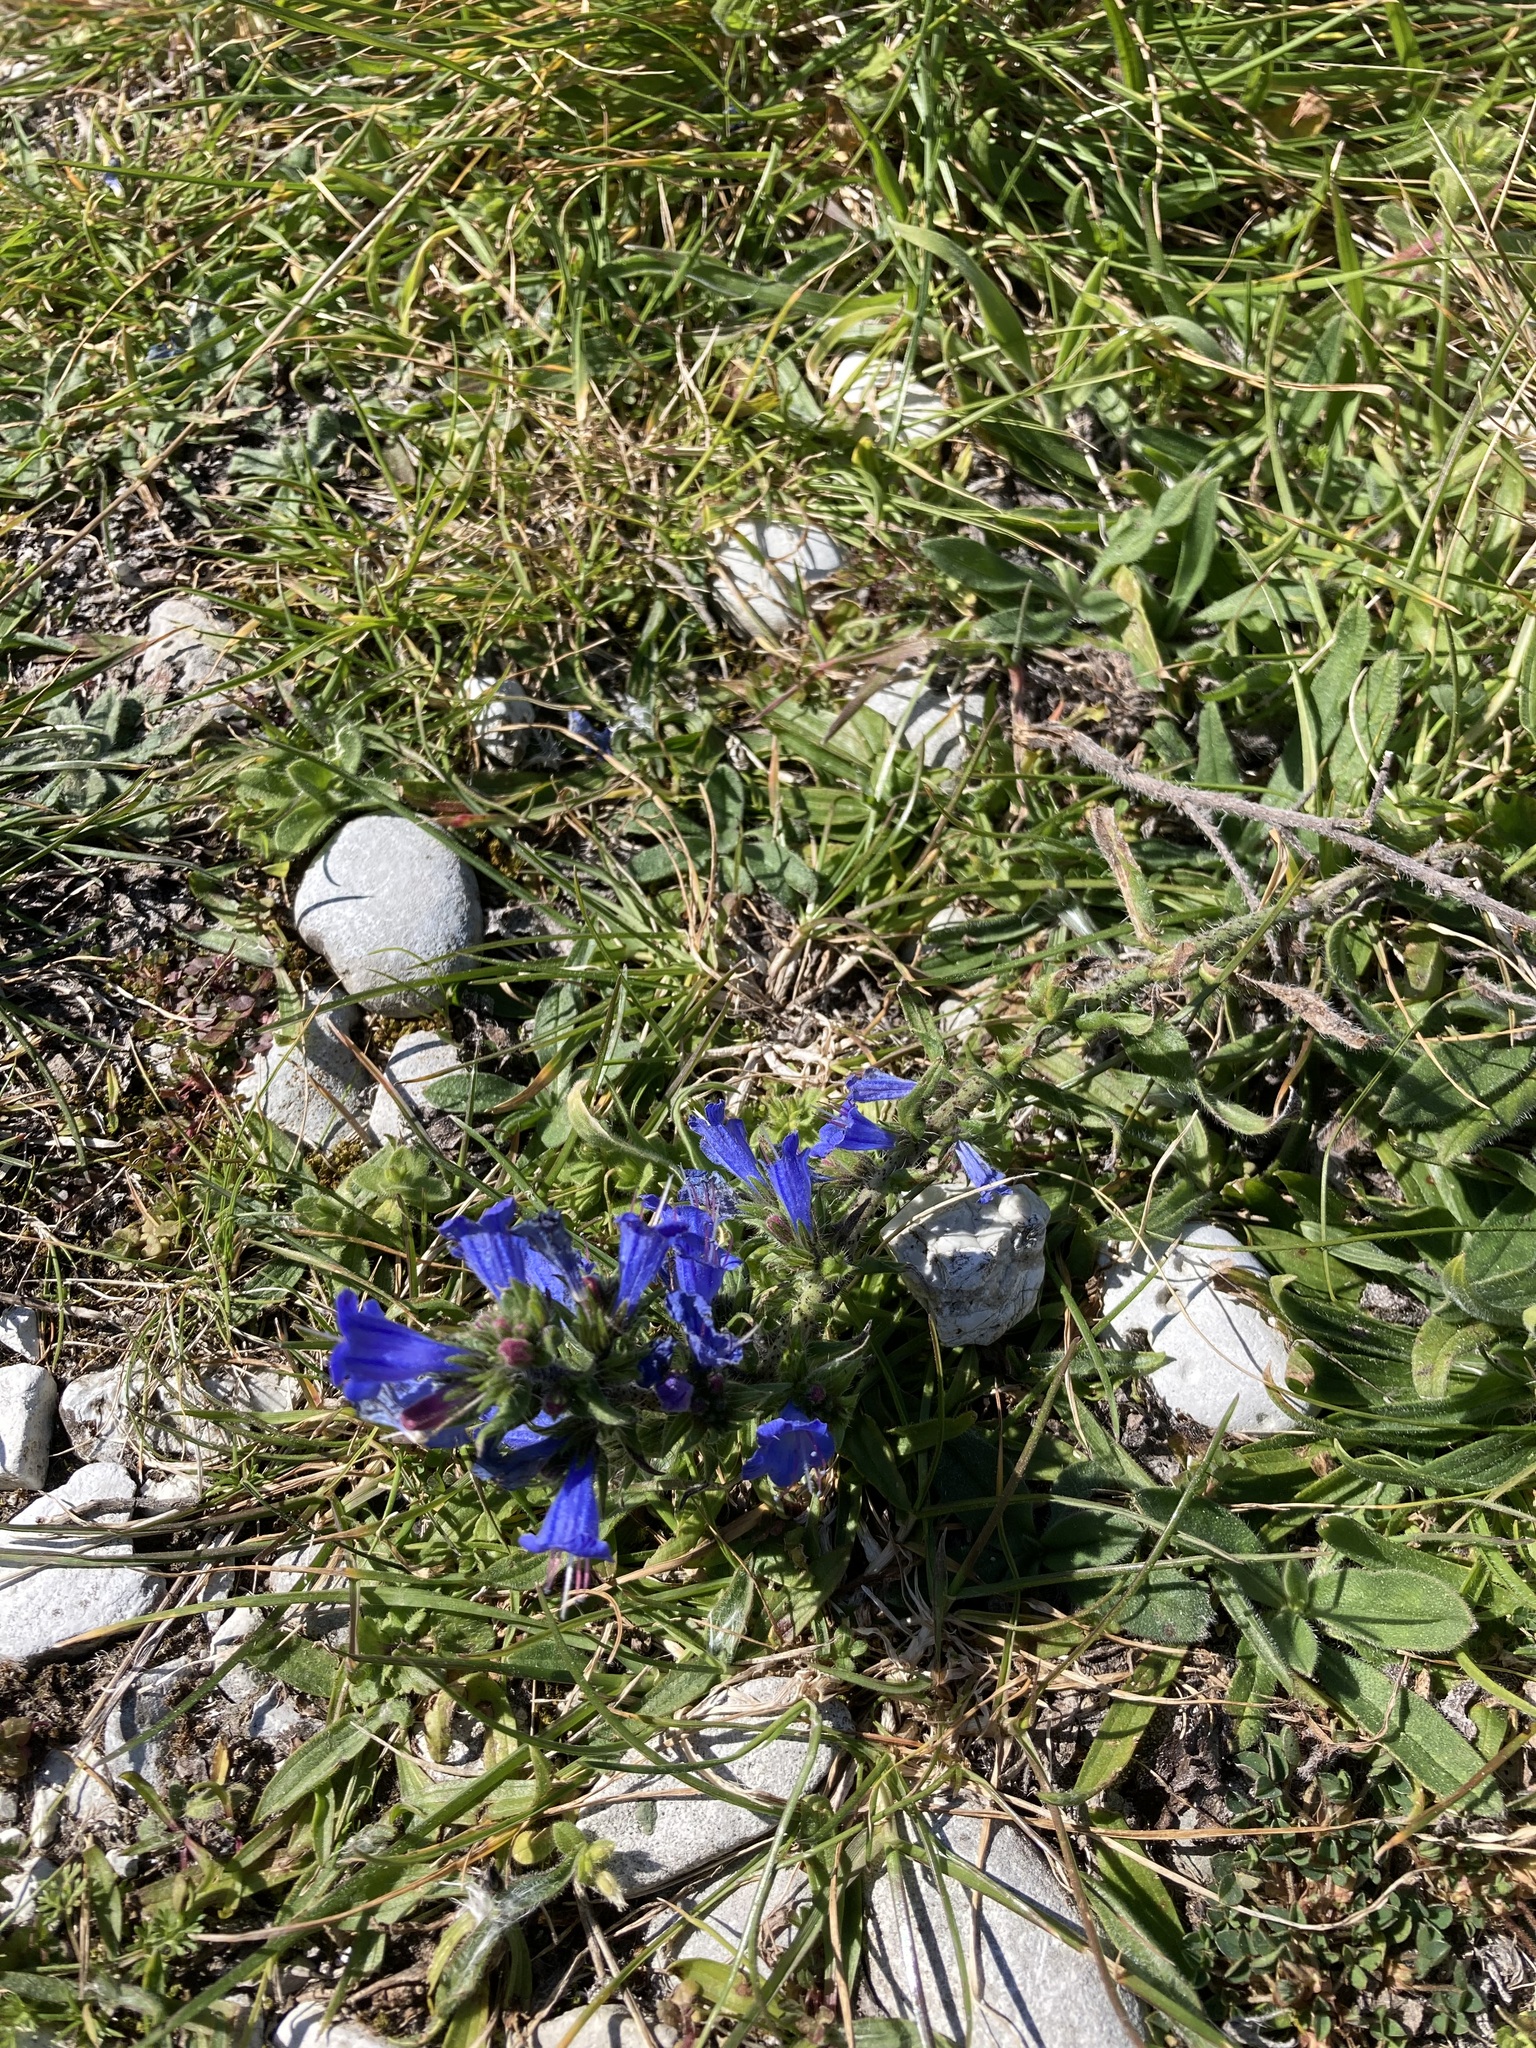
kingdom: Plantae
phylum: Tracheophyta
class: Magnoliopsida
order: Boraginales
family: Boraginaceae
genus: Echium
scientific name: Echium vulgare
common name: Common viper's bugloss
